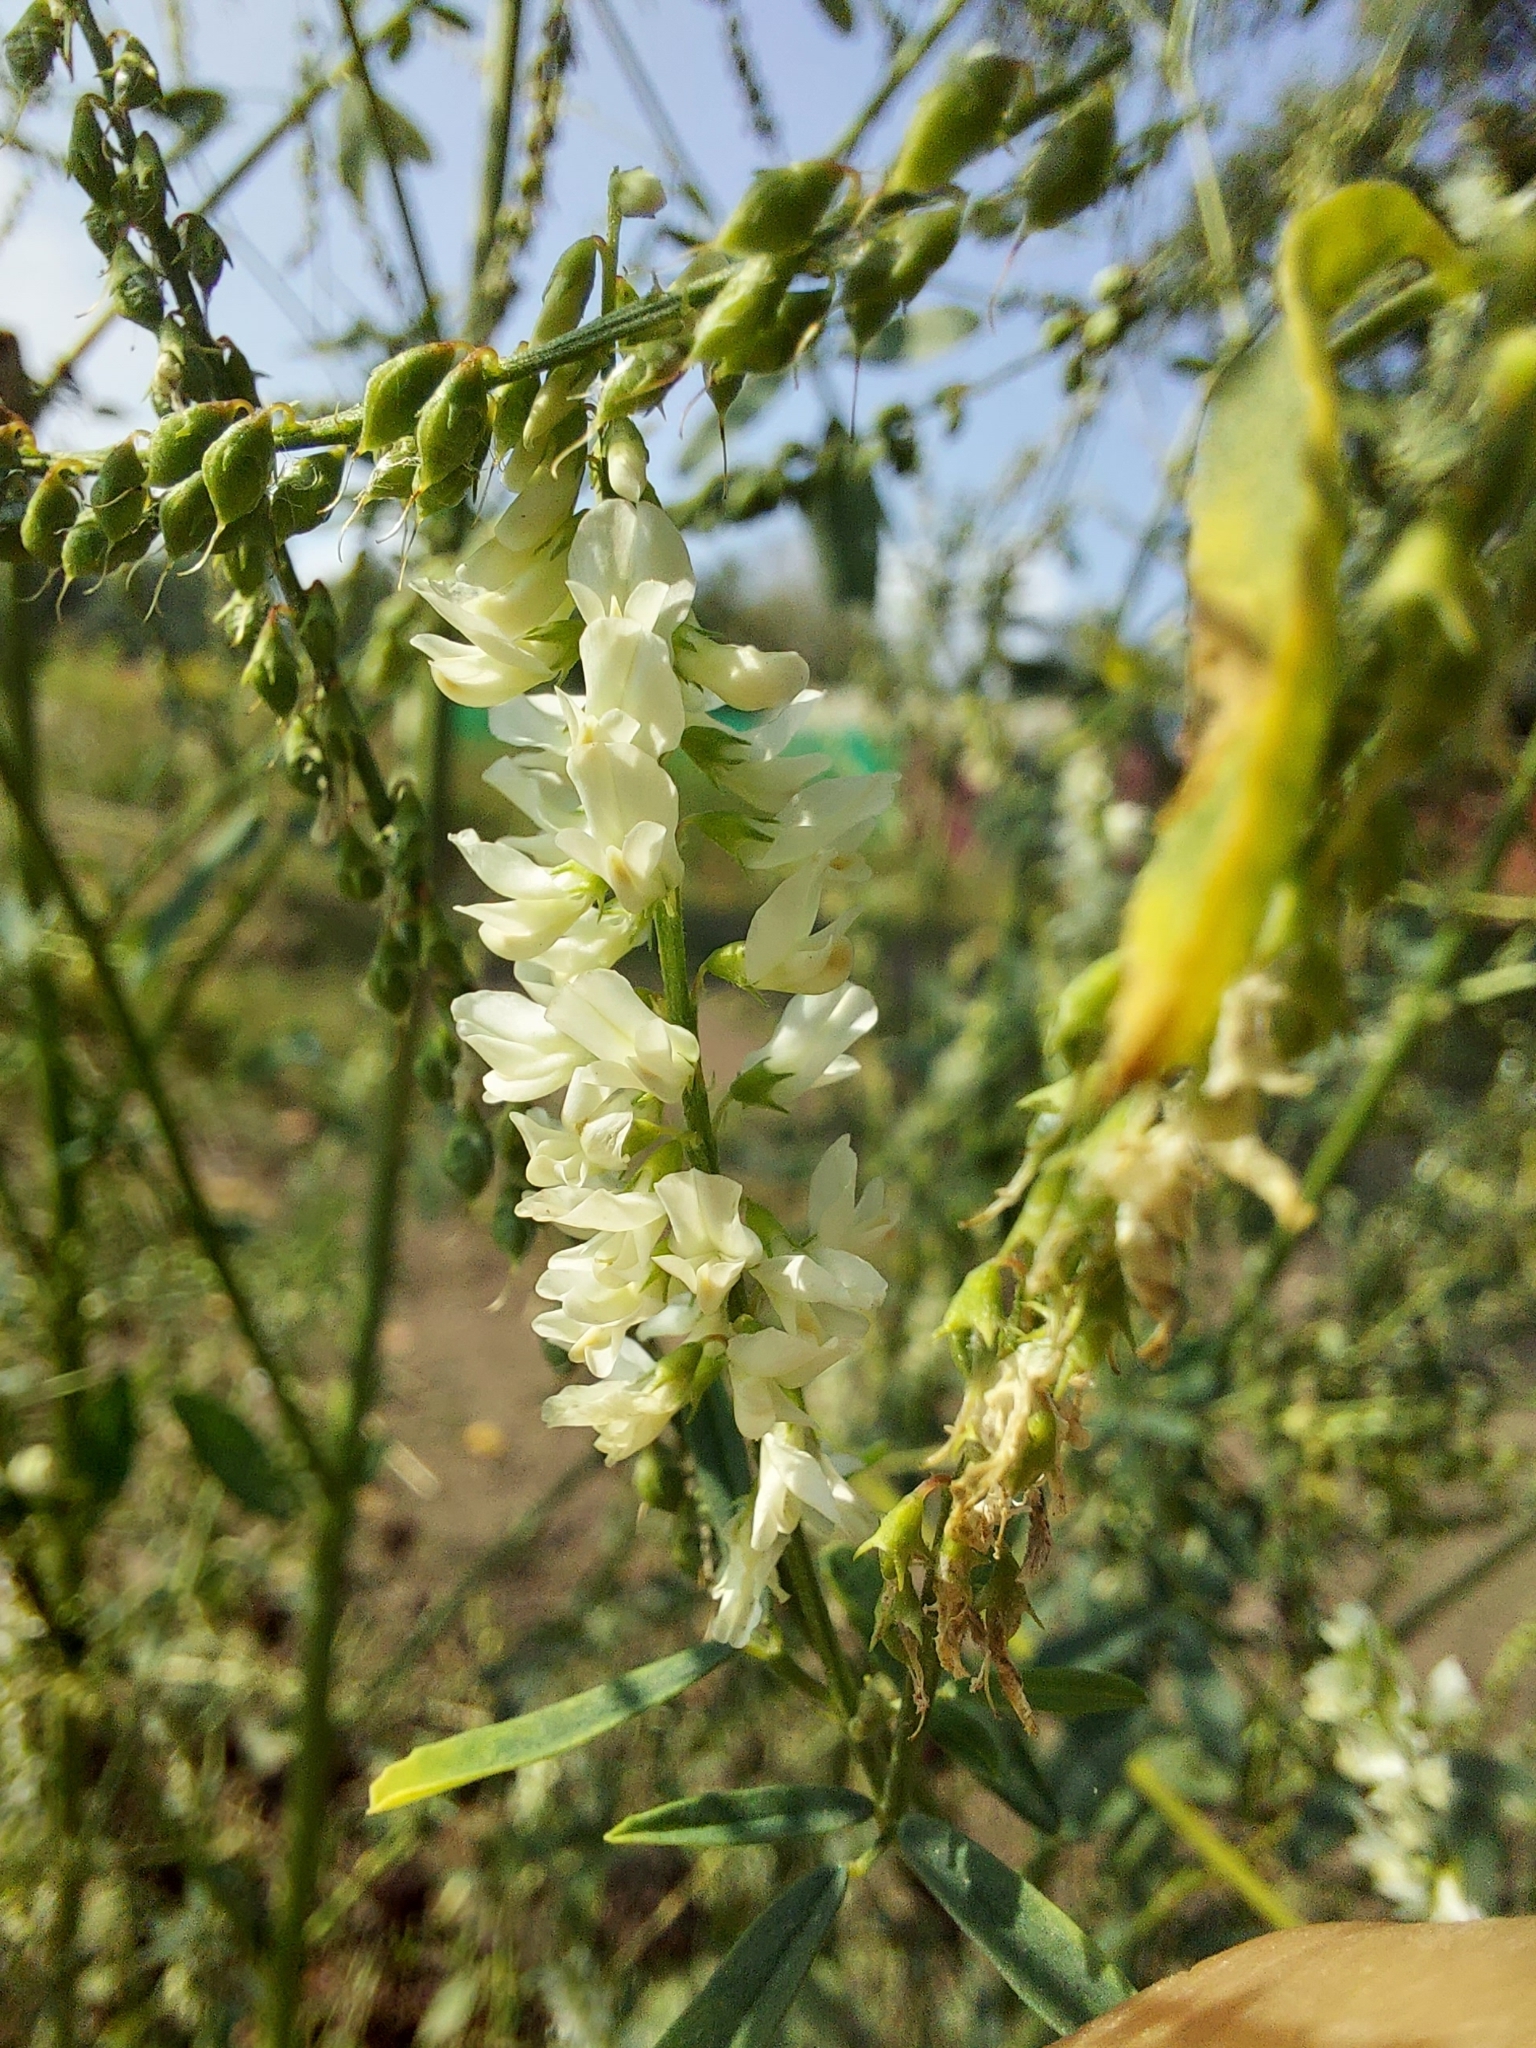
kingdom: Plantae
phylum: Tracheophyta
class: Magnoliopsida
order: Fabales
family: Fabaceae
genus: Melilotus
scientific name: Melilotus albus
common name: White melilot
